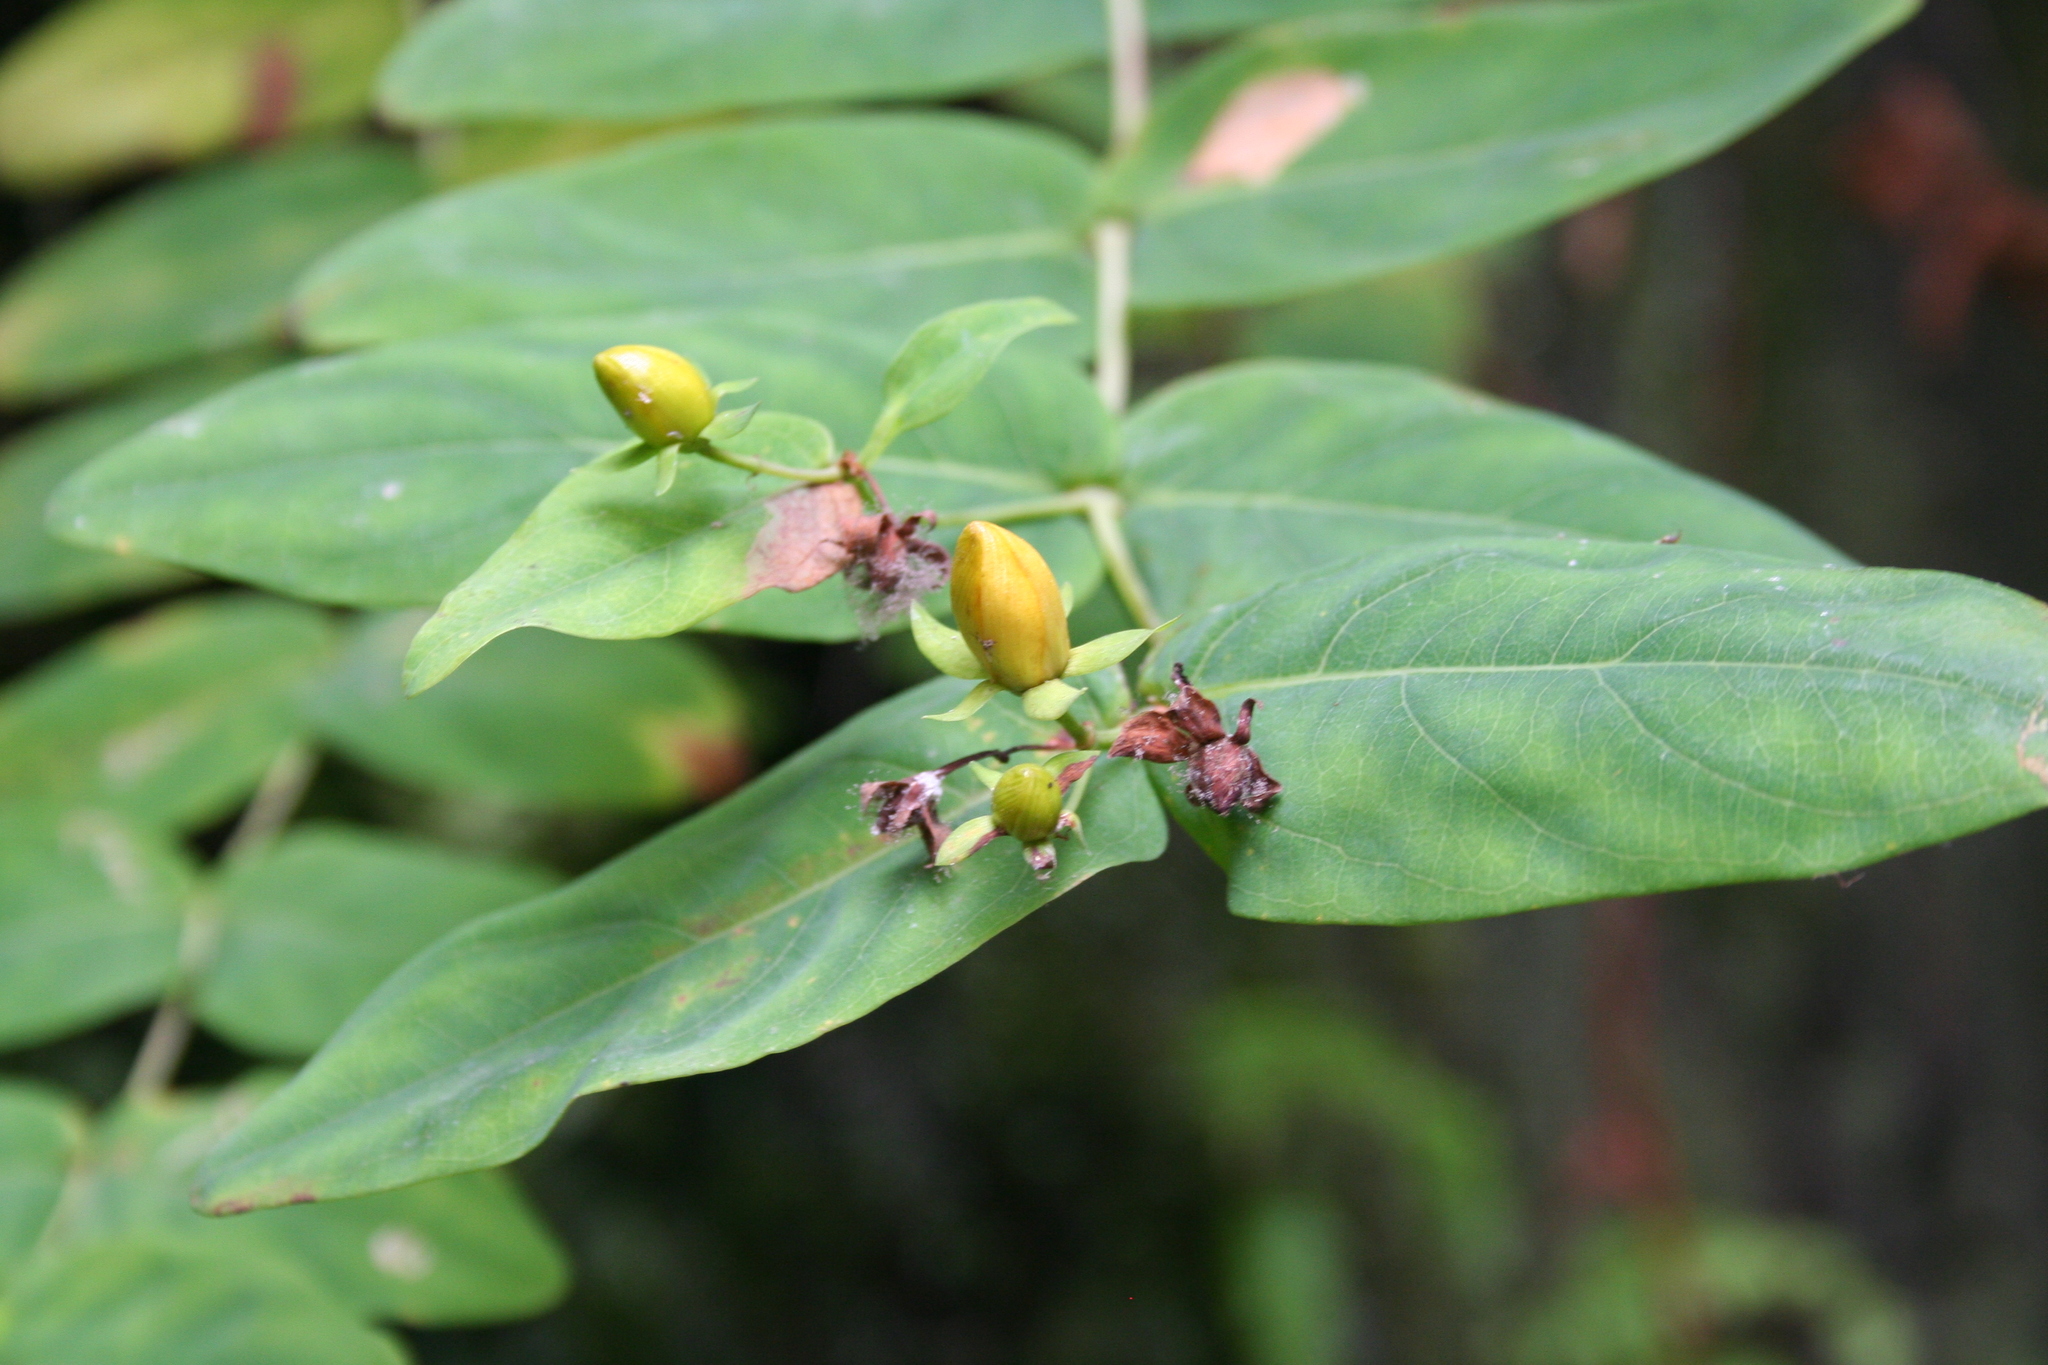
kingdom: Plantae
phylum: Tracheophyta
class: Magnoliopsida
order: Malpighiales
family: Hypericaceae
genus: Hypericum
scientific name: Hypericum grandifolium
